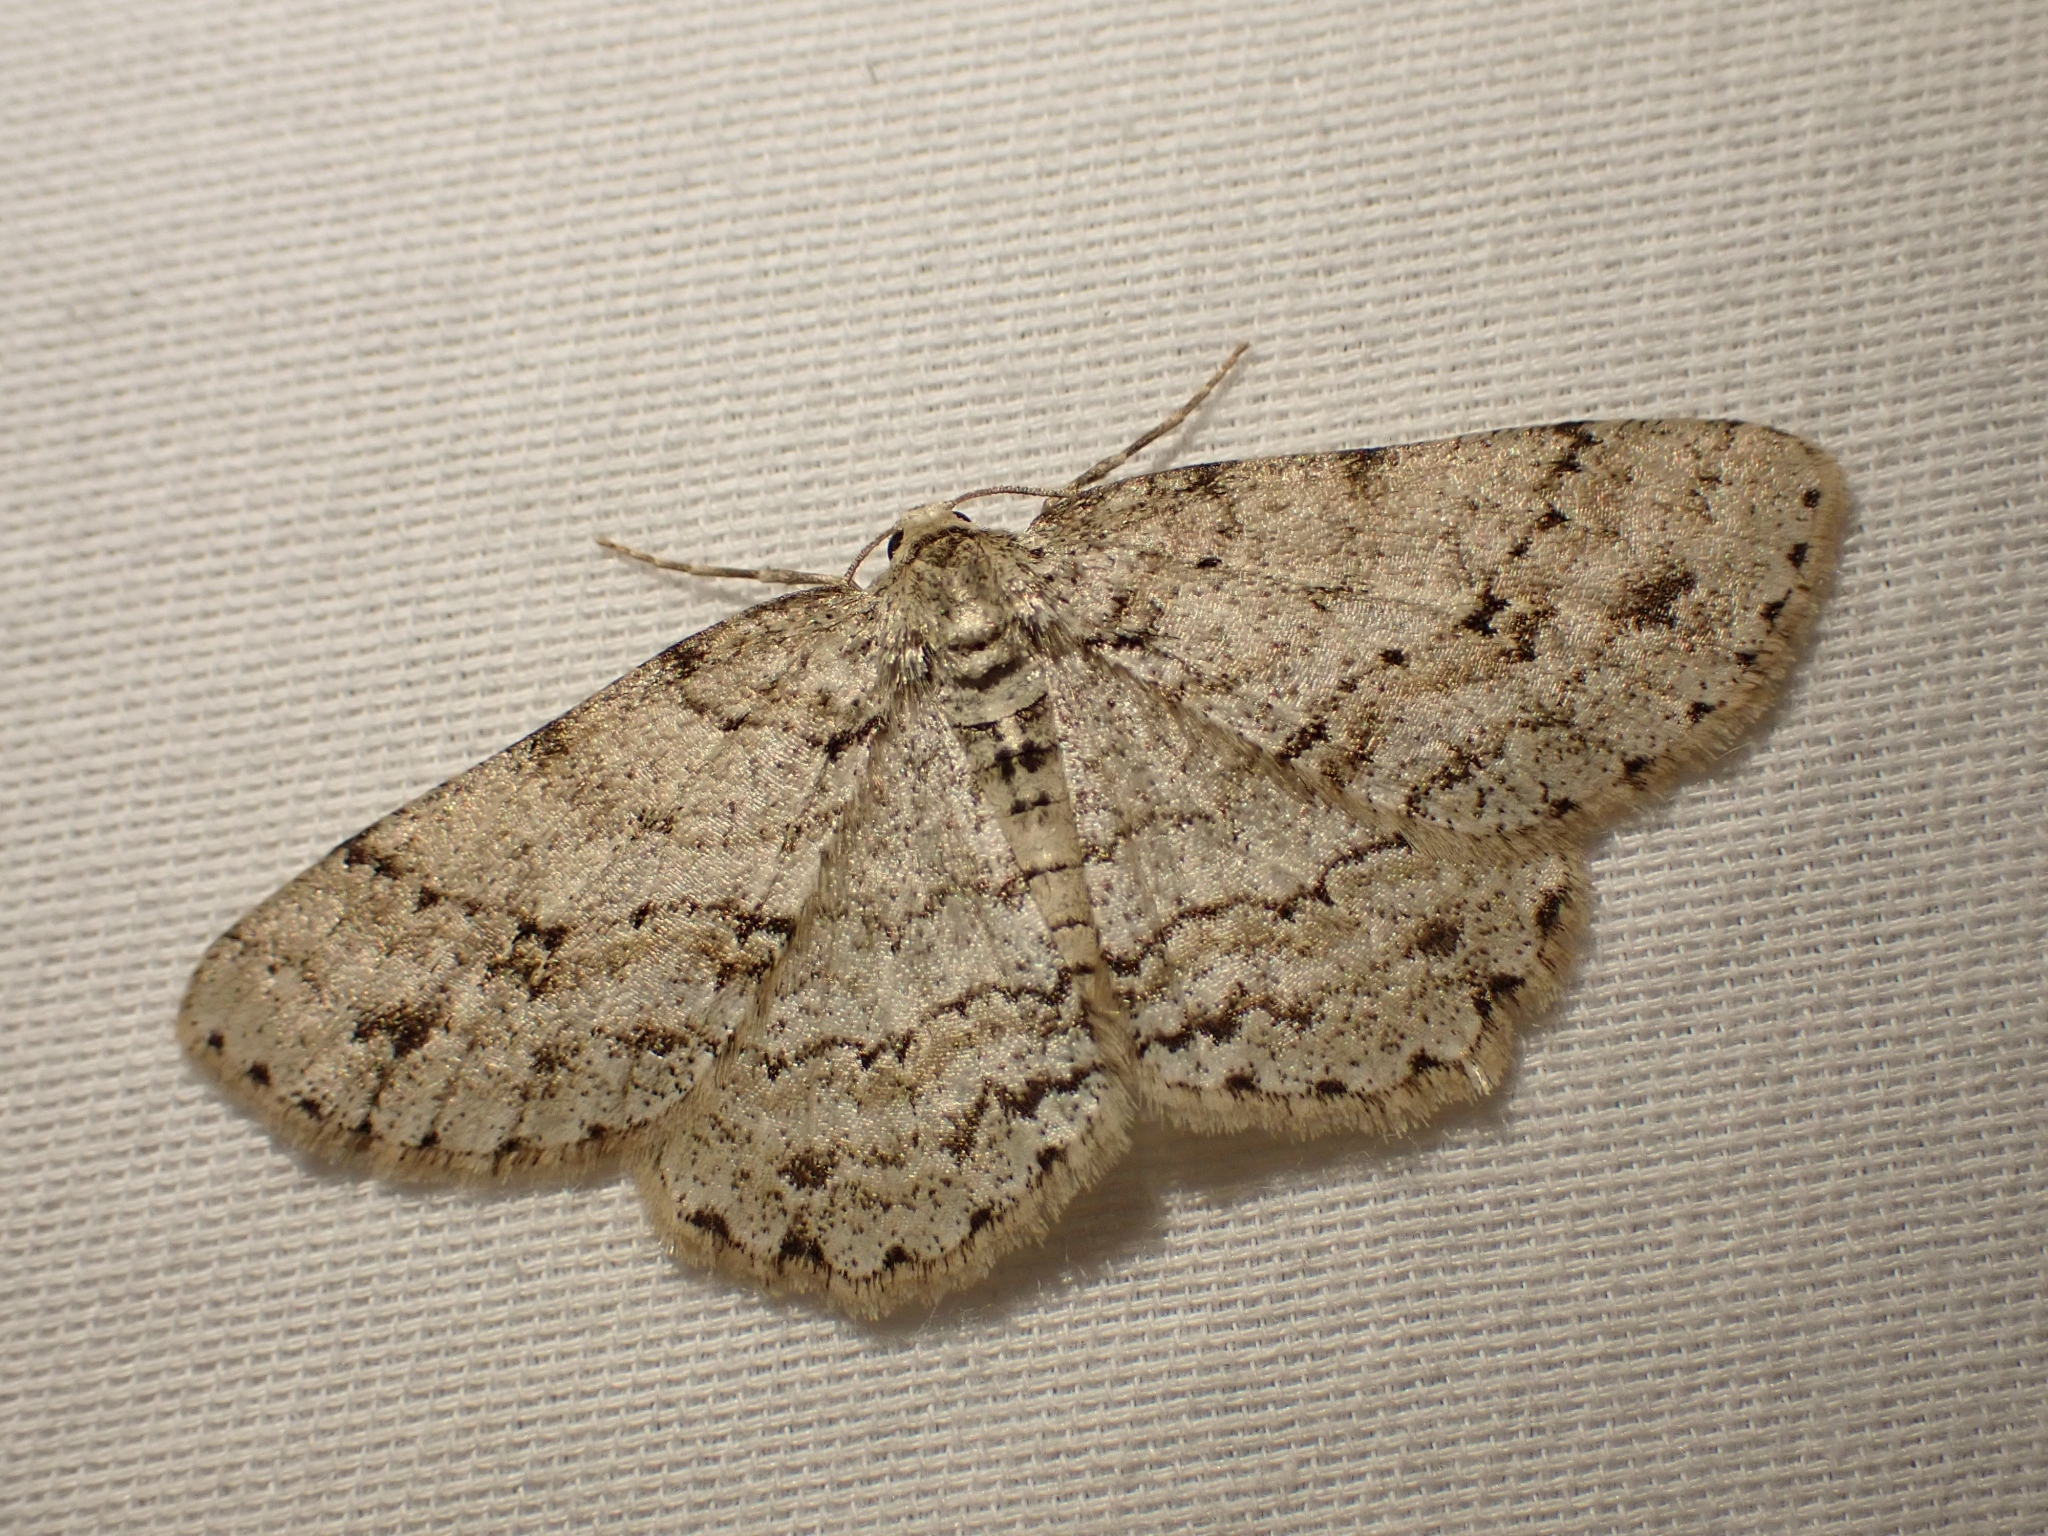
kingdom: Animalia
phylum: Arthropoda
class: Insecta
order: Lepidoptera
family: Geometridae
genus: Ectropis
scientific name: Ectropis crepuscularia
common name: Engrailed
